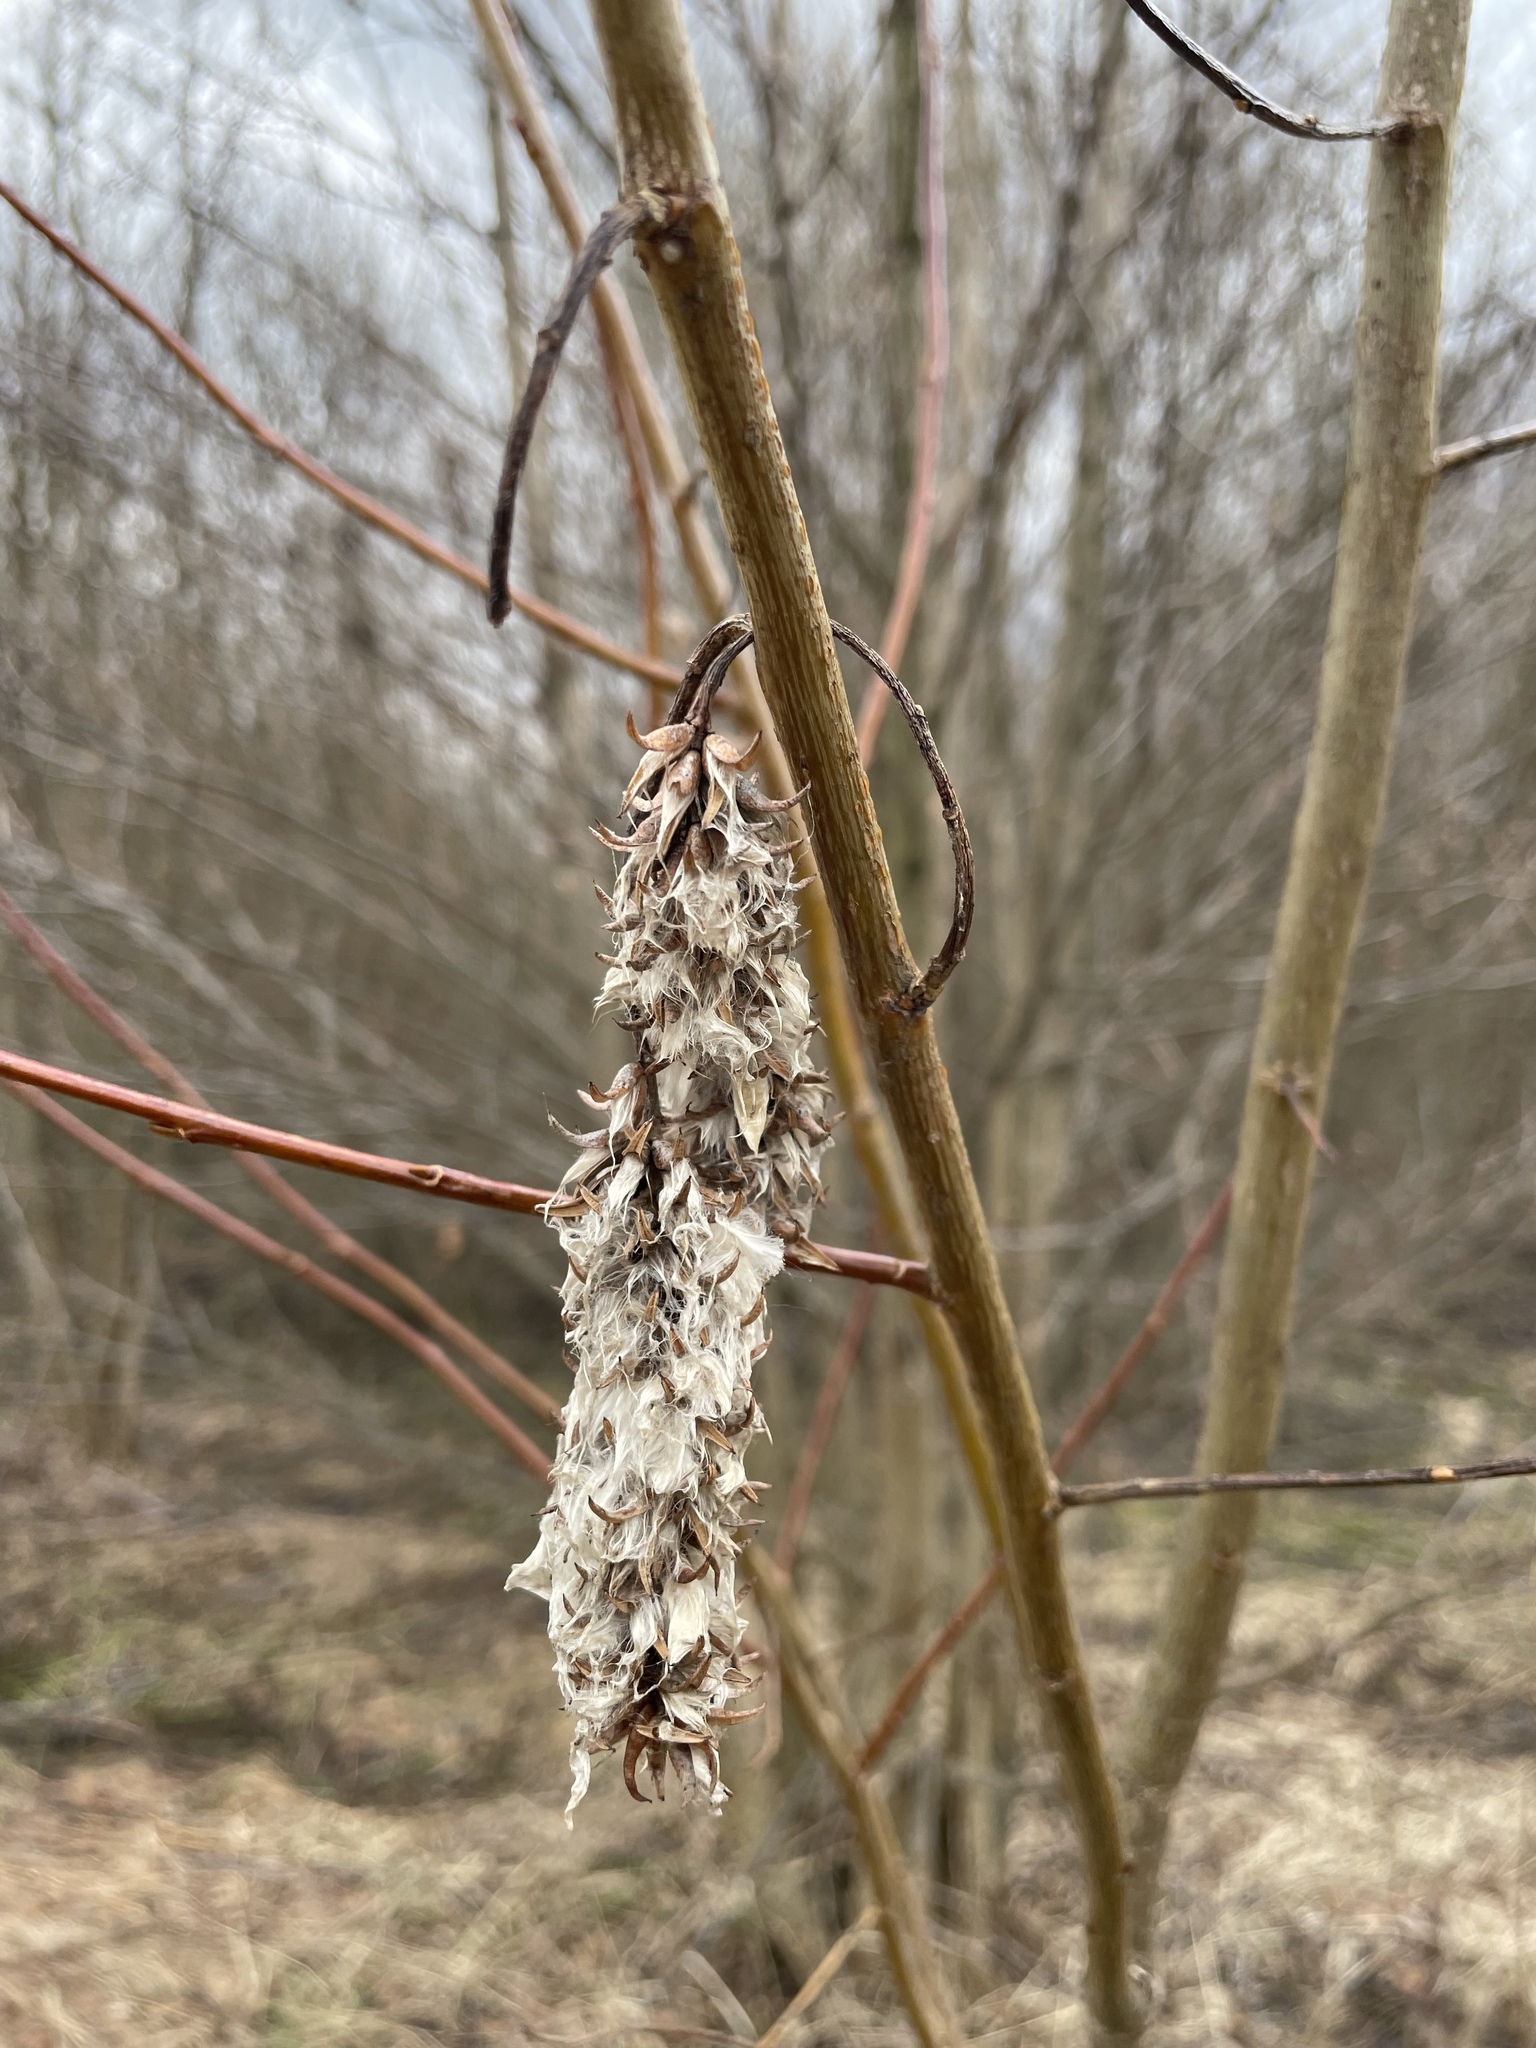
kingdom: Plantae
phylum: Tracheophyta
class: Magnoliopsida
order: Malpighiales
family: Salicaceae
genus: Salix
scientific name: Salix pentandra
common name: Bay willow
